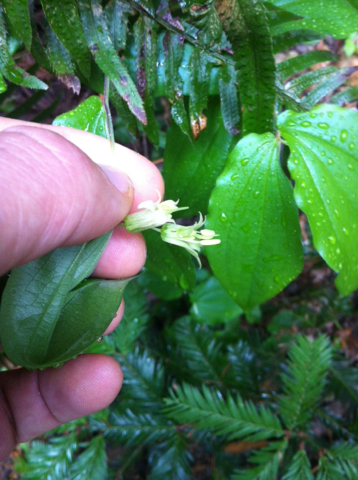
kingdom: Plantae
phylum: Tracheophyta
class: Liliopsida
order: Liliales
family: Liliaceae
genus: Prosartes
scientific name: Prosartes hookeri
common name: Fairy-bells
